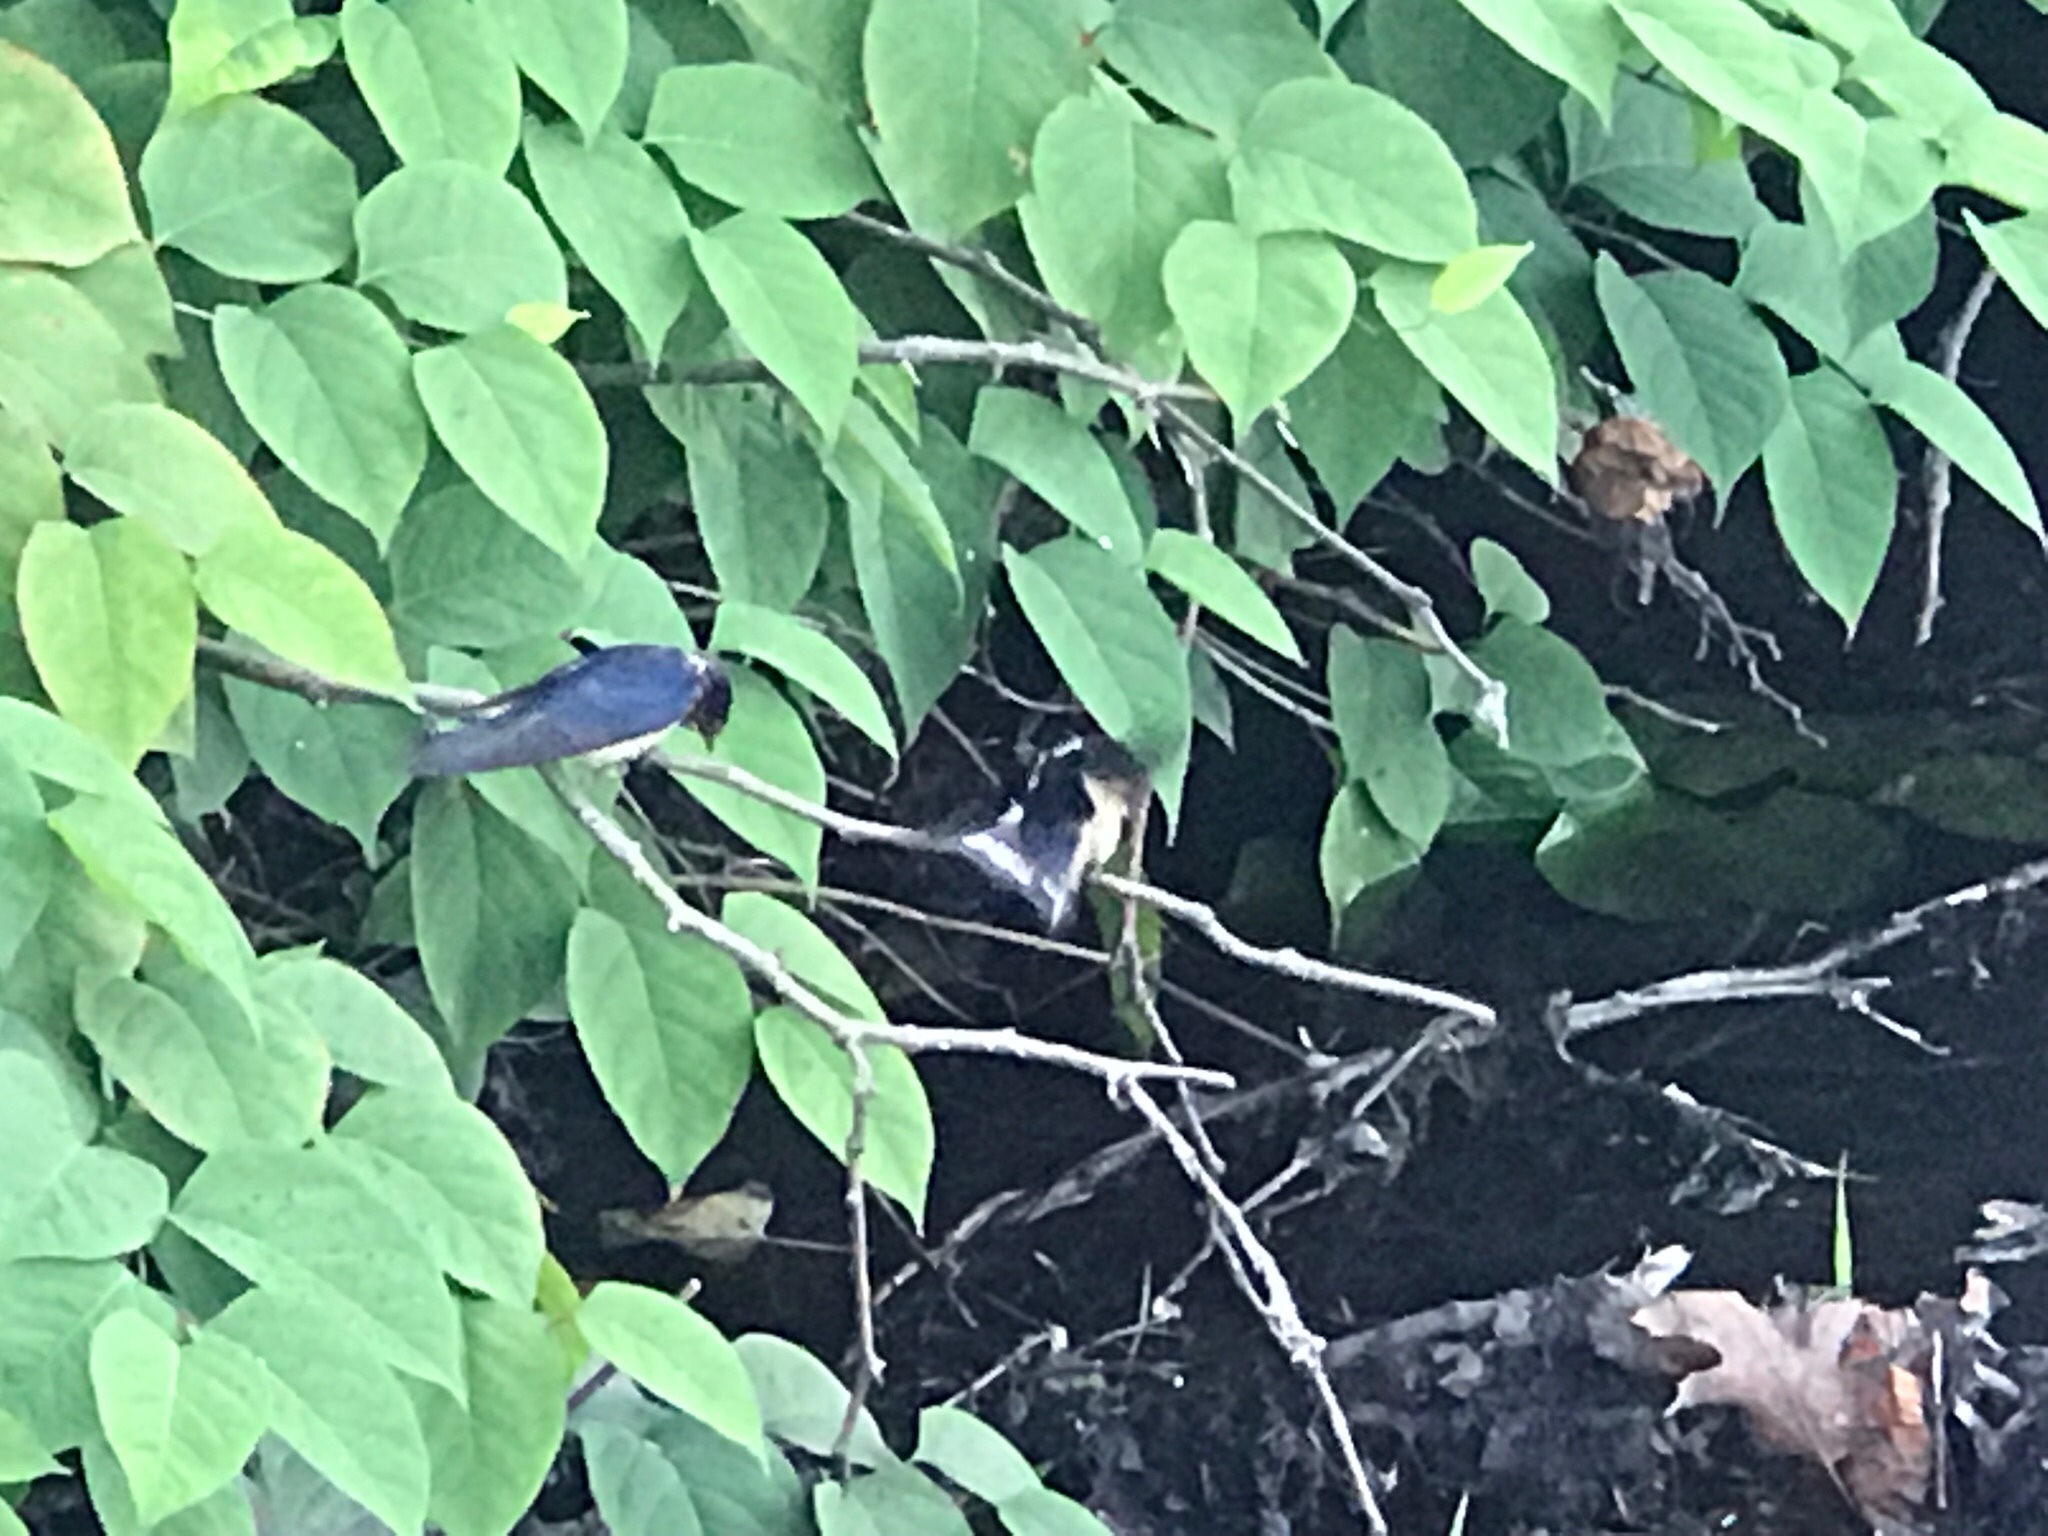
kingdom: Animalia
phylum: Chordata
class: Aves
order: Passeriformes
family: Hirundinidae
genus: Hirundo
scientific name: Hirundo rustica
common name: Barn swallow
